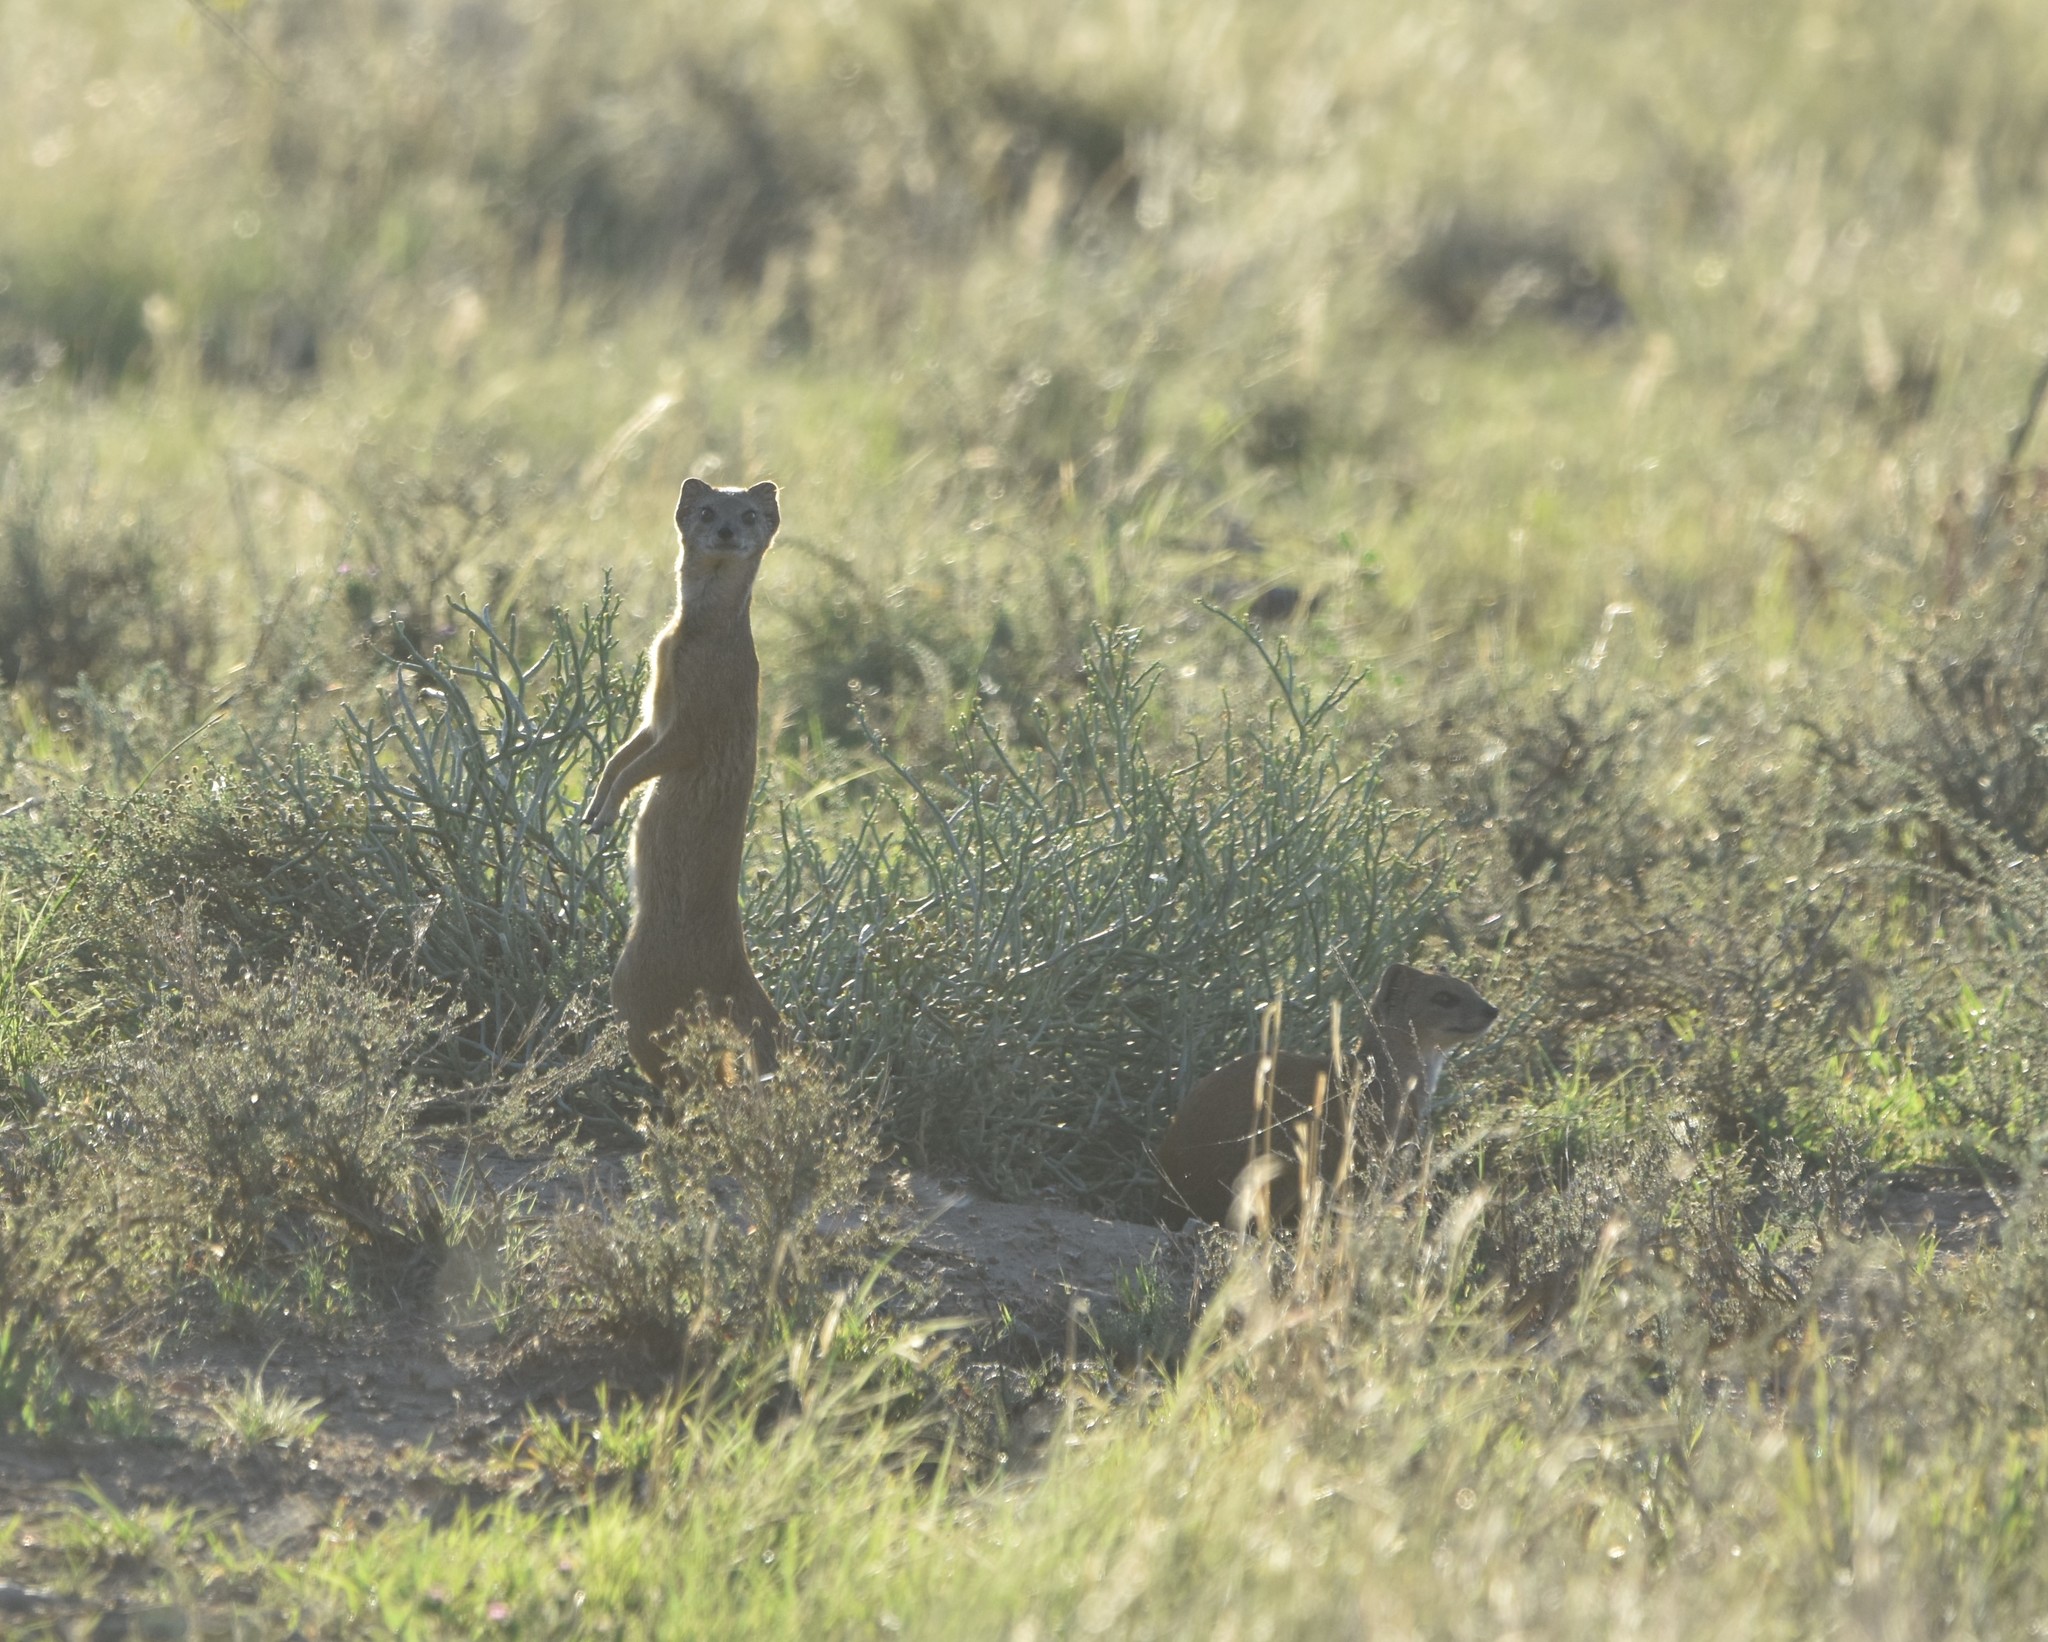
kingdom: Animalia
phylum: Chordata
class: Mammalia
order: Carnivora
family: Herpestidae
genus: Cynictis
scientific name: Cynictis penicillata
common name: Yellow mongoose
